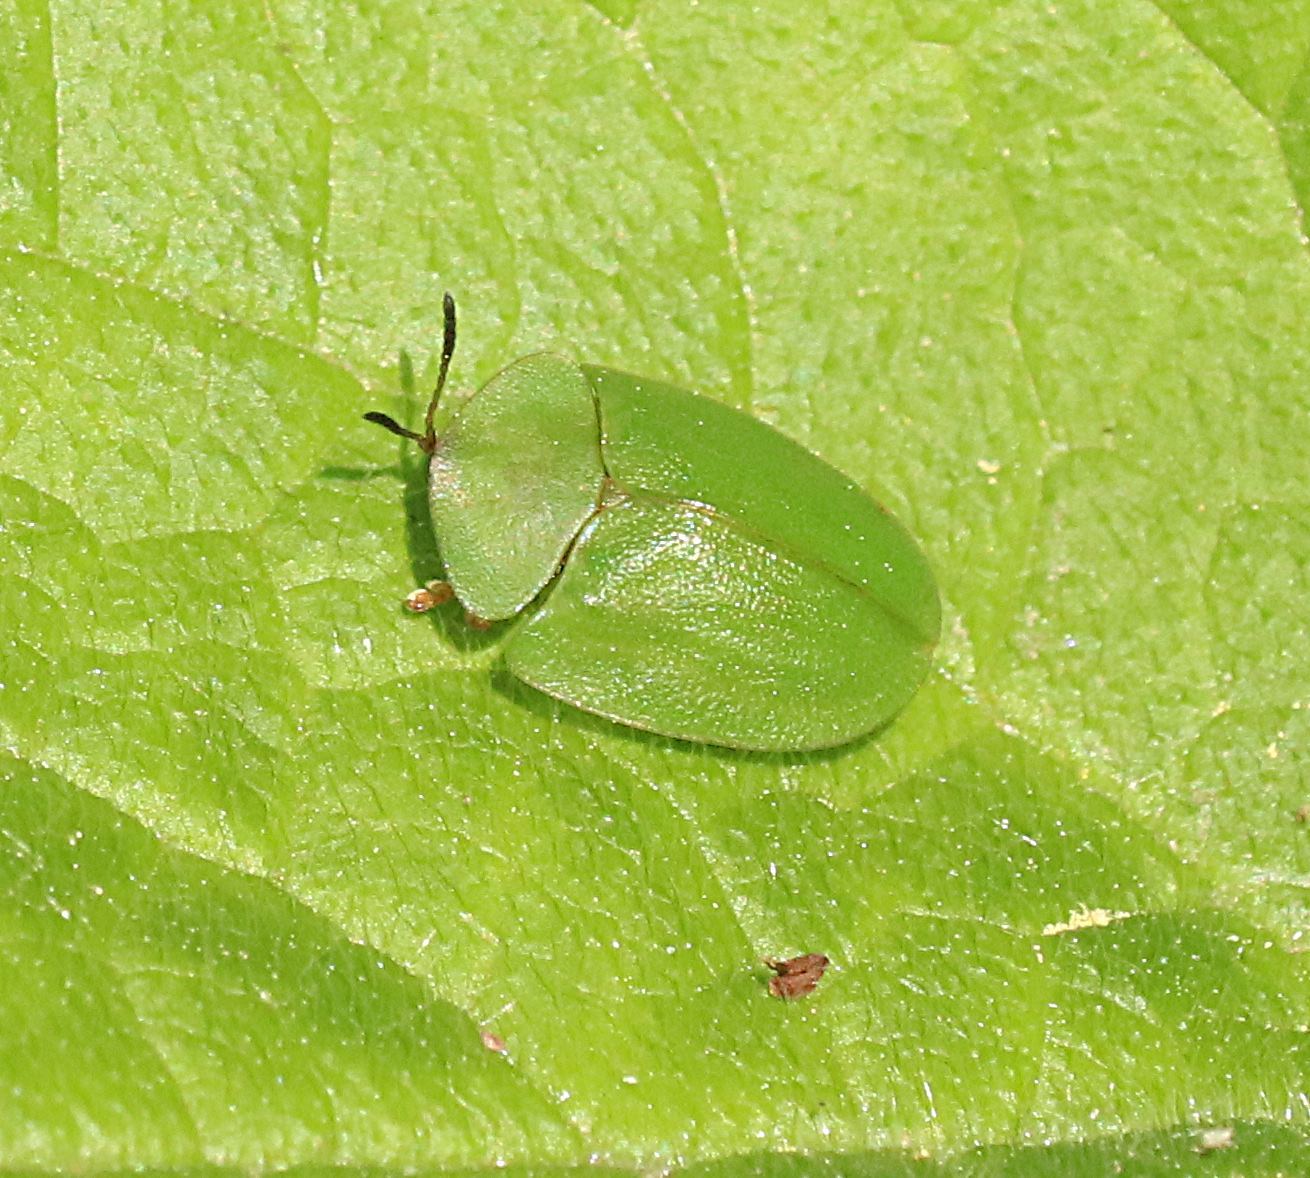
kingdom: Animalia
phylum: Arthropoda
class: Insecta
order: Coleoptera
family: Chrysomelidae
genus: Cassida
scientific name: Cassida viridis
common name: Green tortoise beetle
